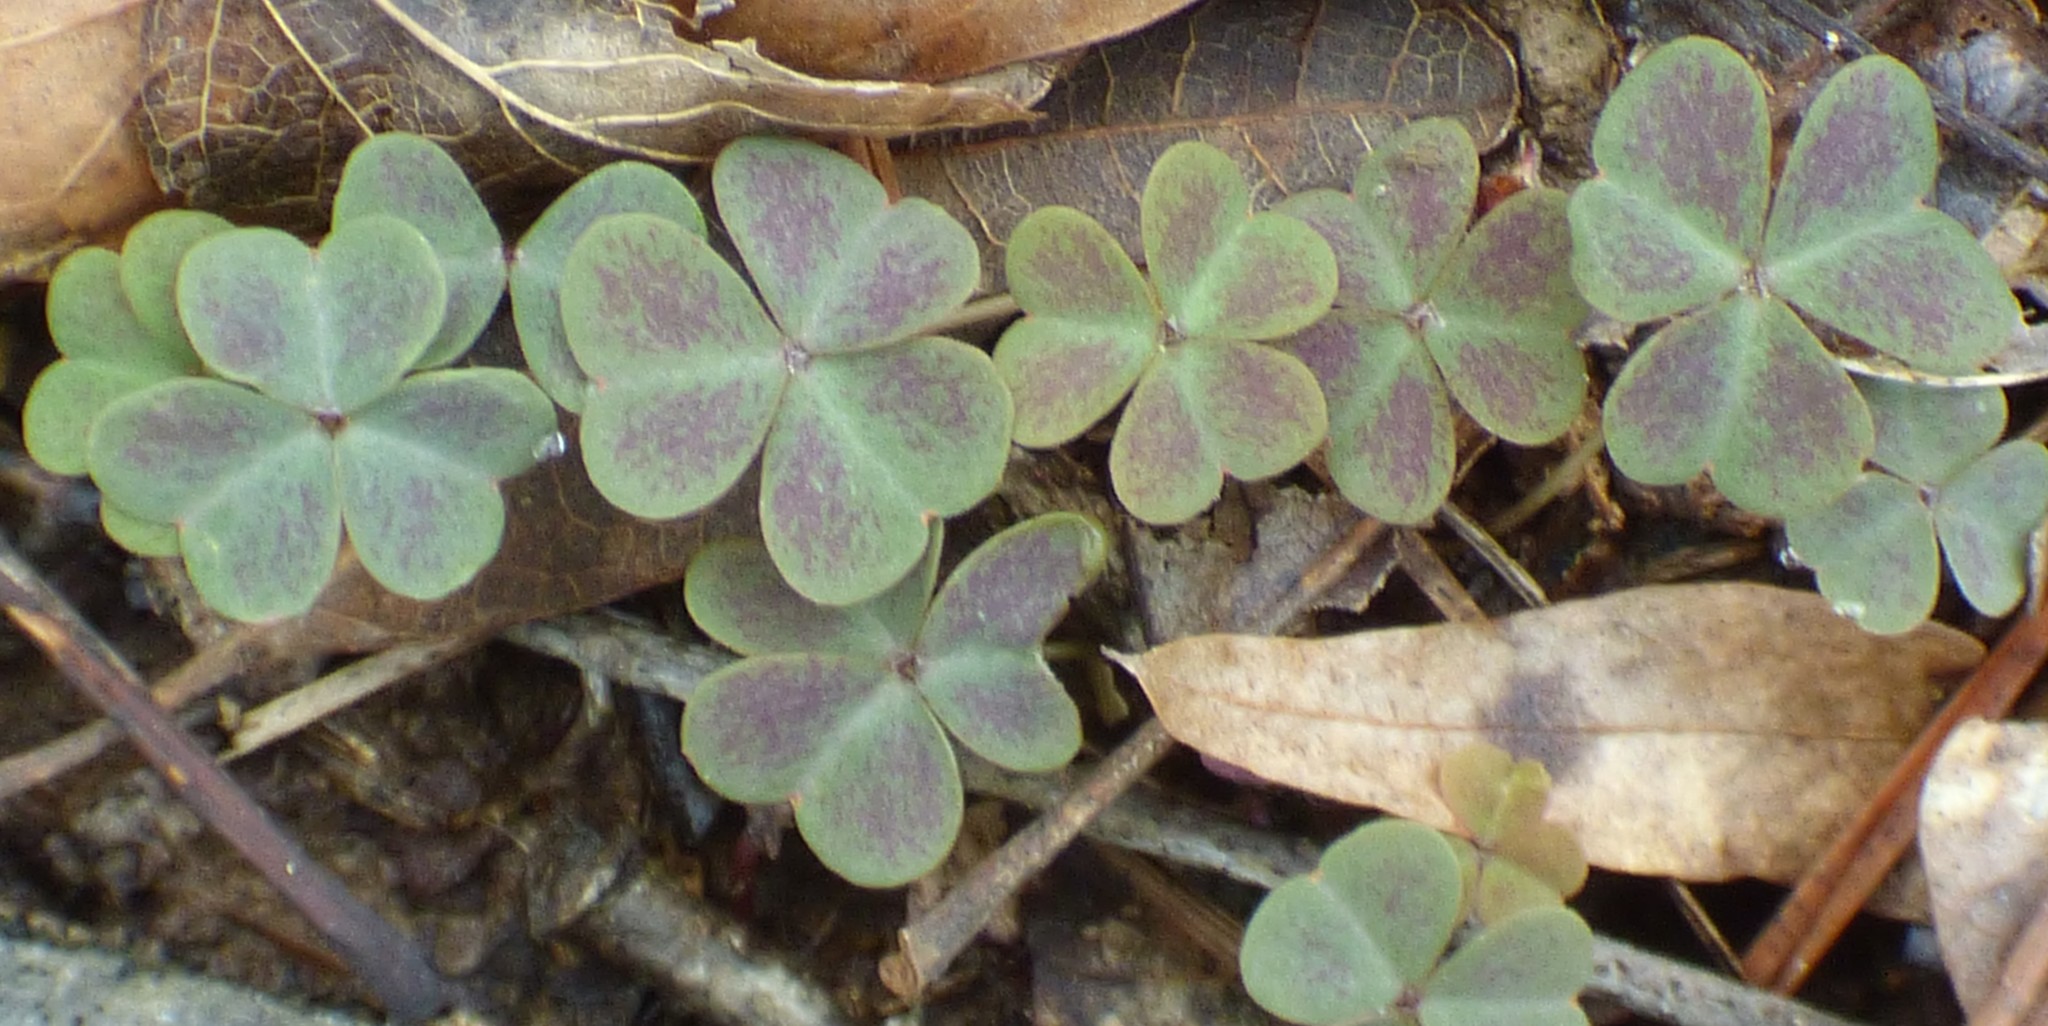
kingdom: Plantae
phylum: Tracheophyta
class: Magnoliopsida
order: Oxalidales
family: Oxalidaceae
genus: Oxalis
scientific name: Oxalis violacea
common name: Violet wood-sorrel
